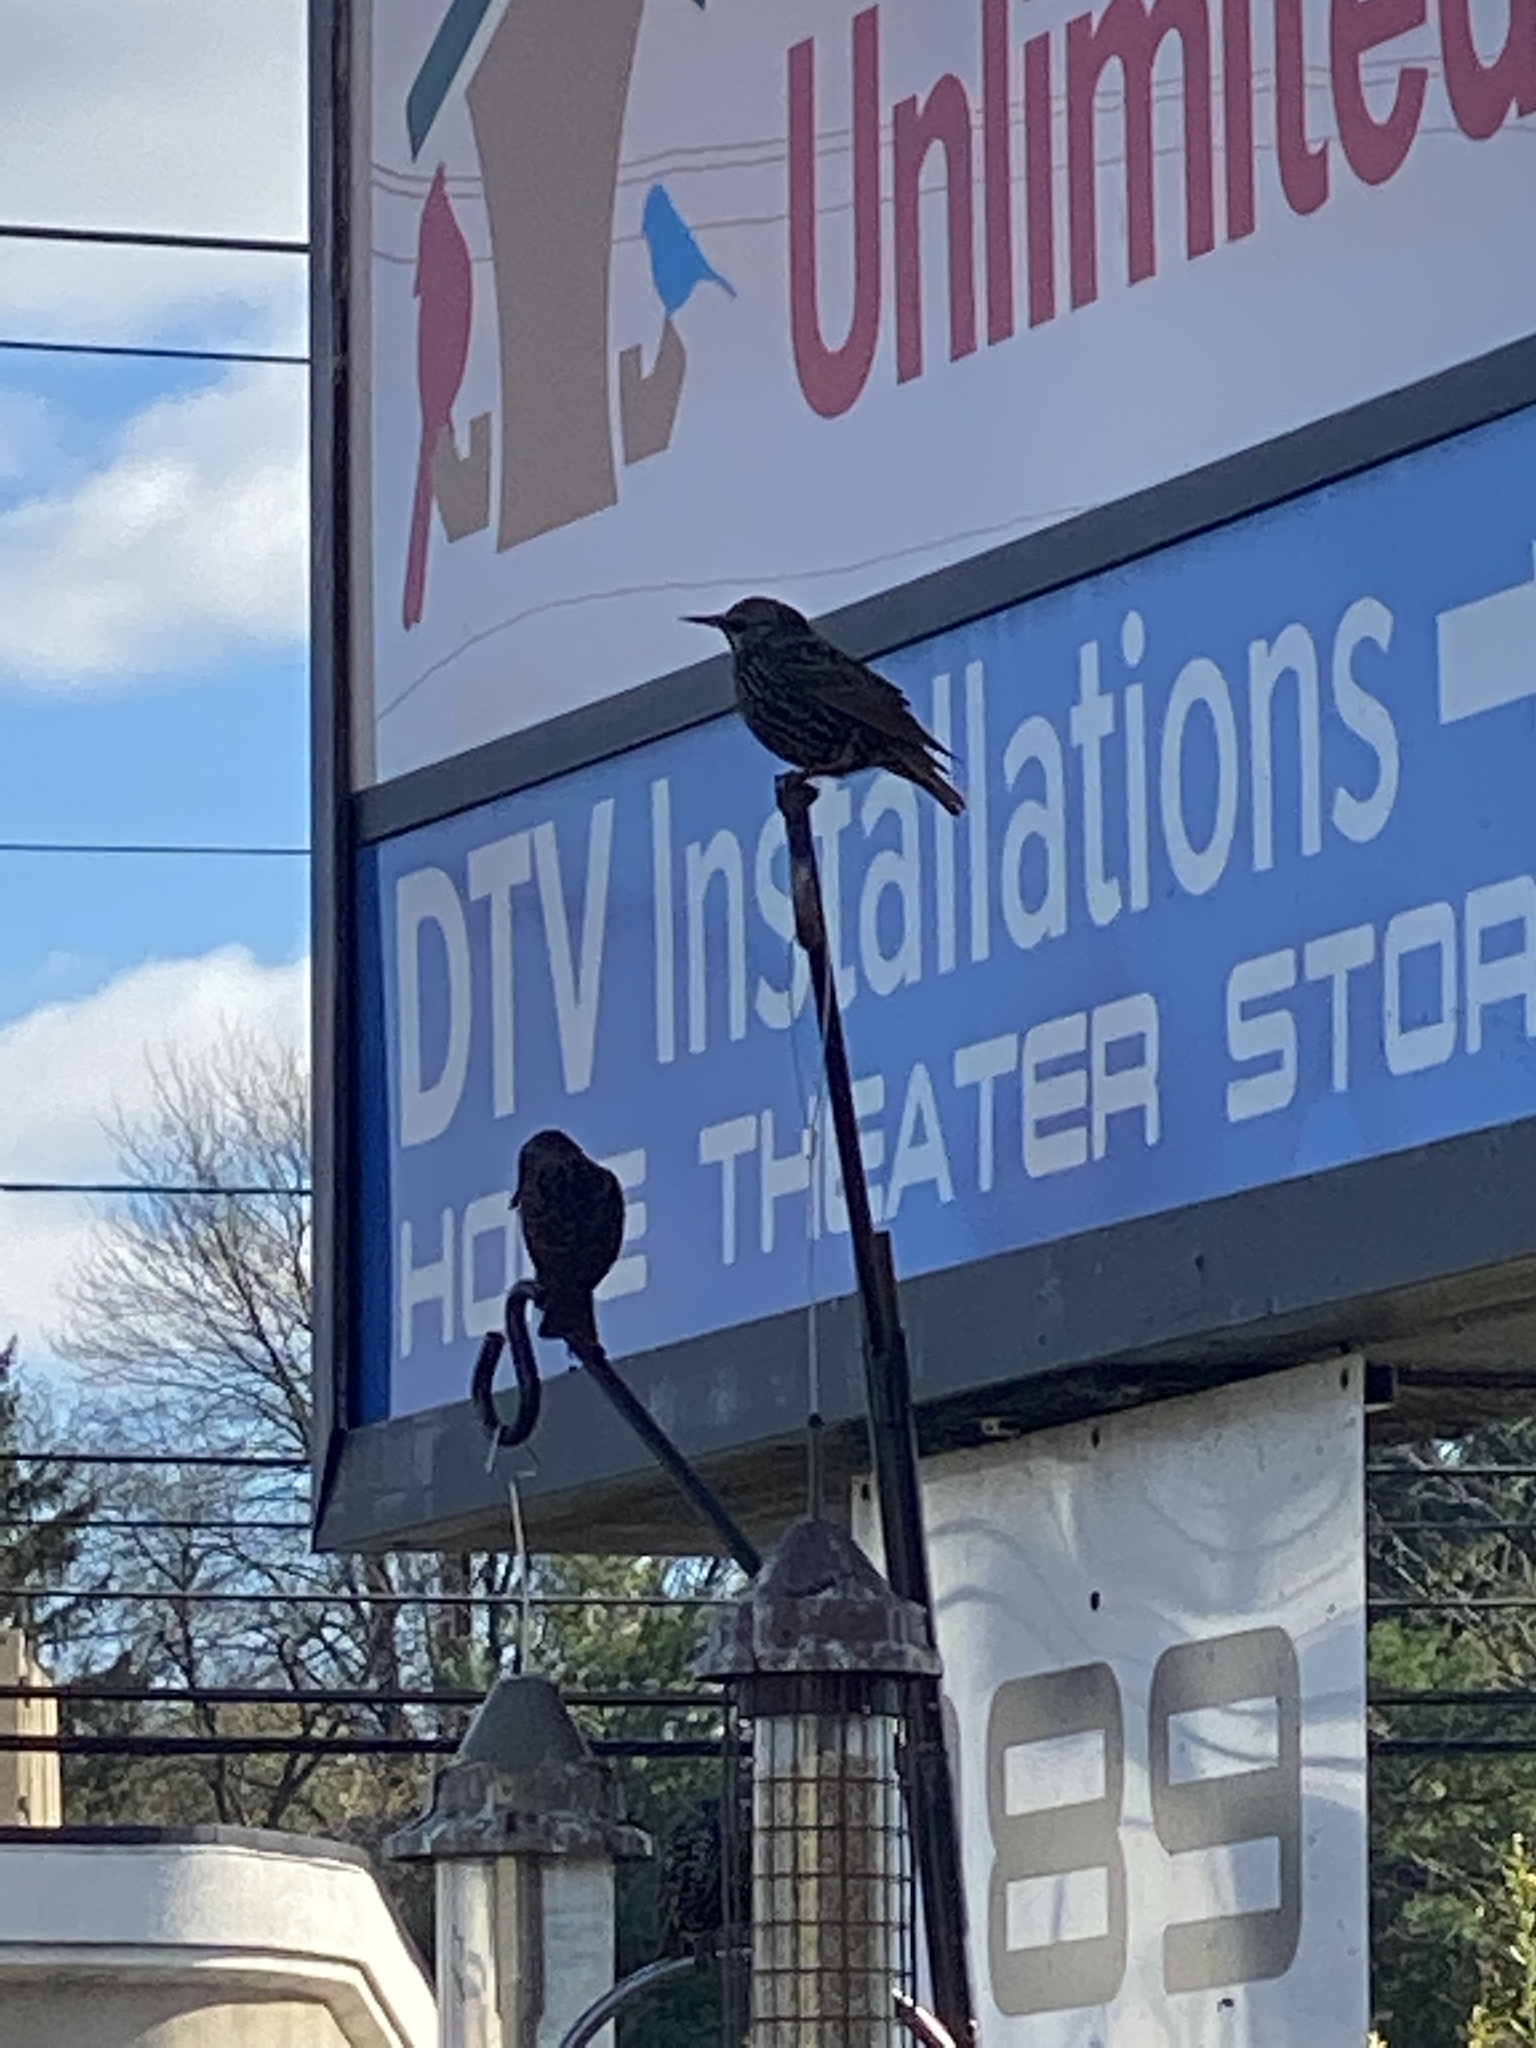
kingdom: Animalia
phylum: Chordata
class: Aves
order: Passeriformes
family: Sturnidae
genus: Sturnus
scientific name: Sturnus vulgaris
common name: Common starling
